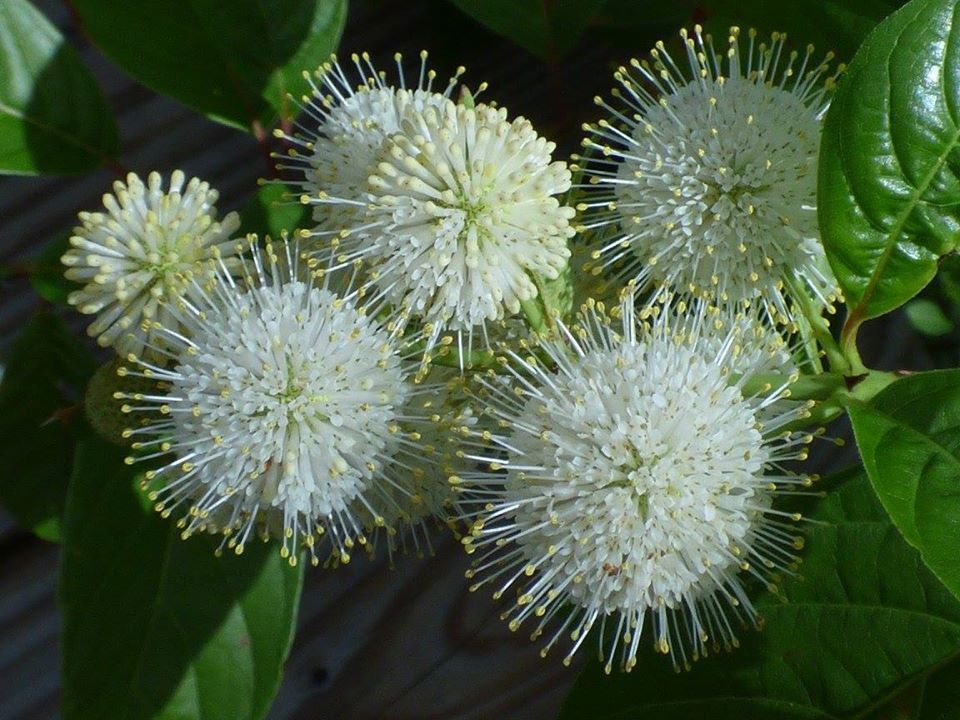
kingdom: Plantae
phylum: Tracheophyta
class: Magnoliopsida
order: Gentianales
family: Rubiaceae
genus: Cephalanthus
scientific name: Cephalanthus occidentalis
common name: Button-willow
